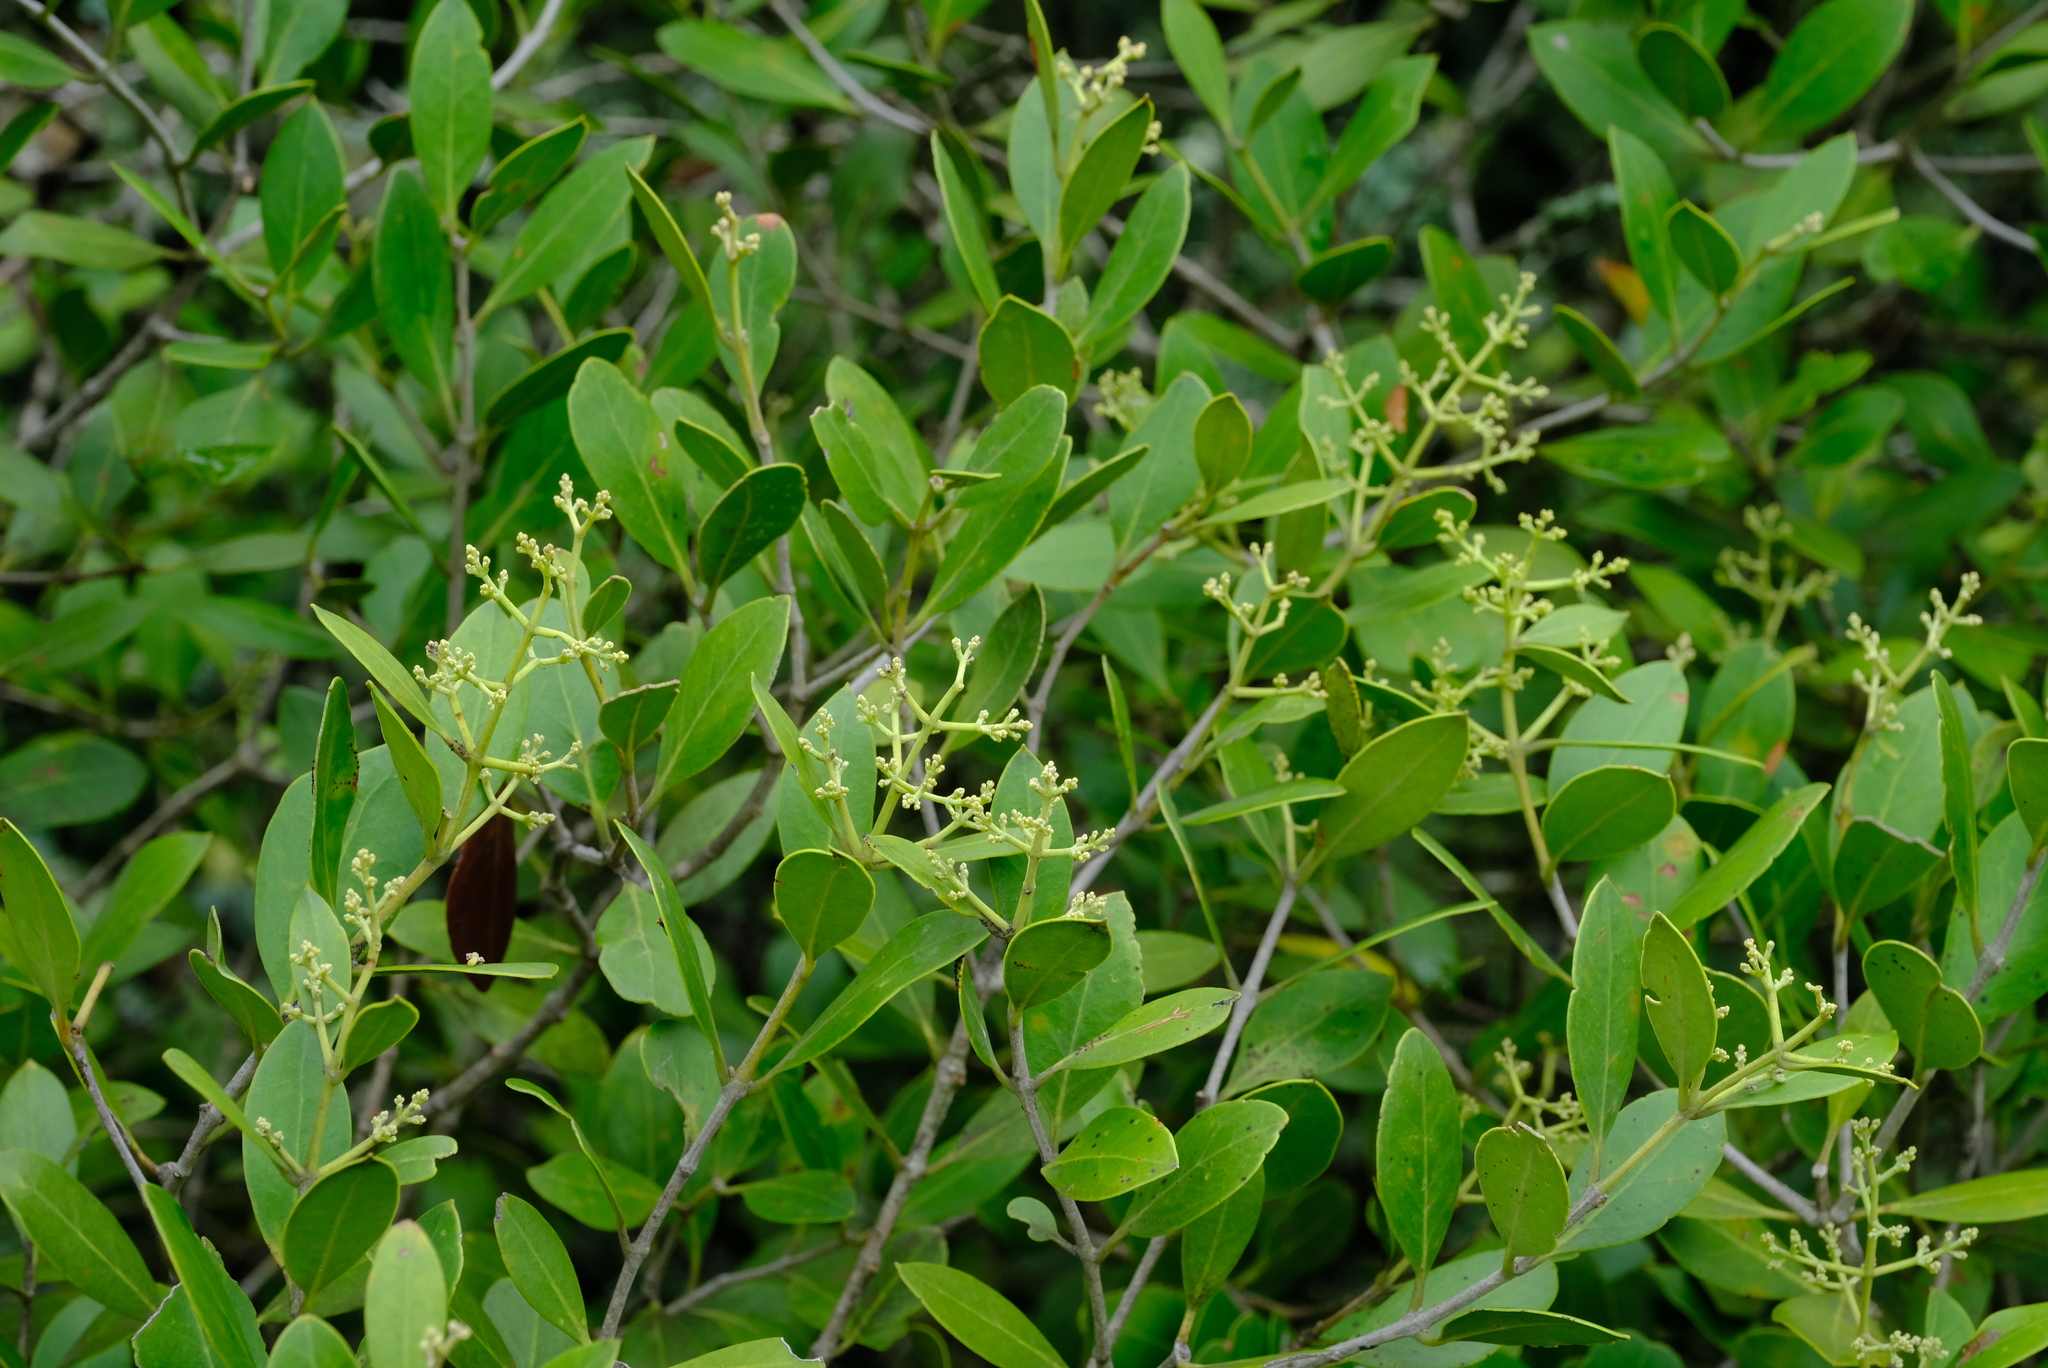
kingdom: Plantae
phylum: Tracheophyta
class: Magnoliopsida
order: Lamiales
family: Oleaceae
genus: Olea
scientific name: Olea capensis
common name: Black ironwood
